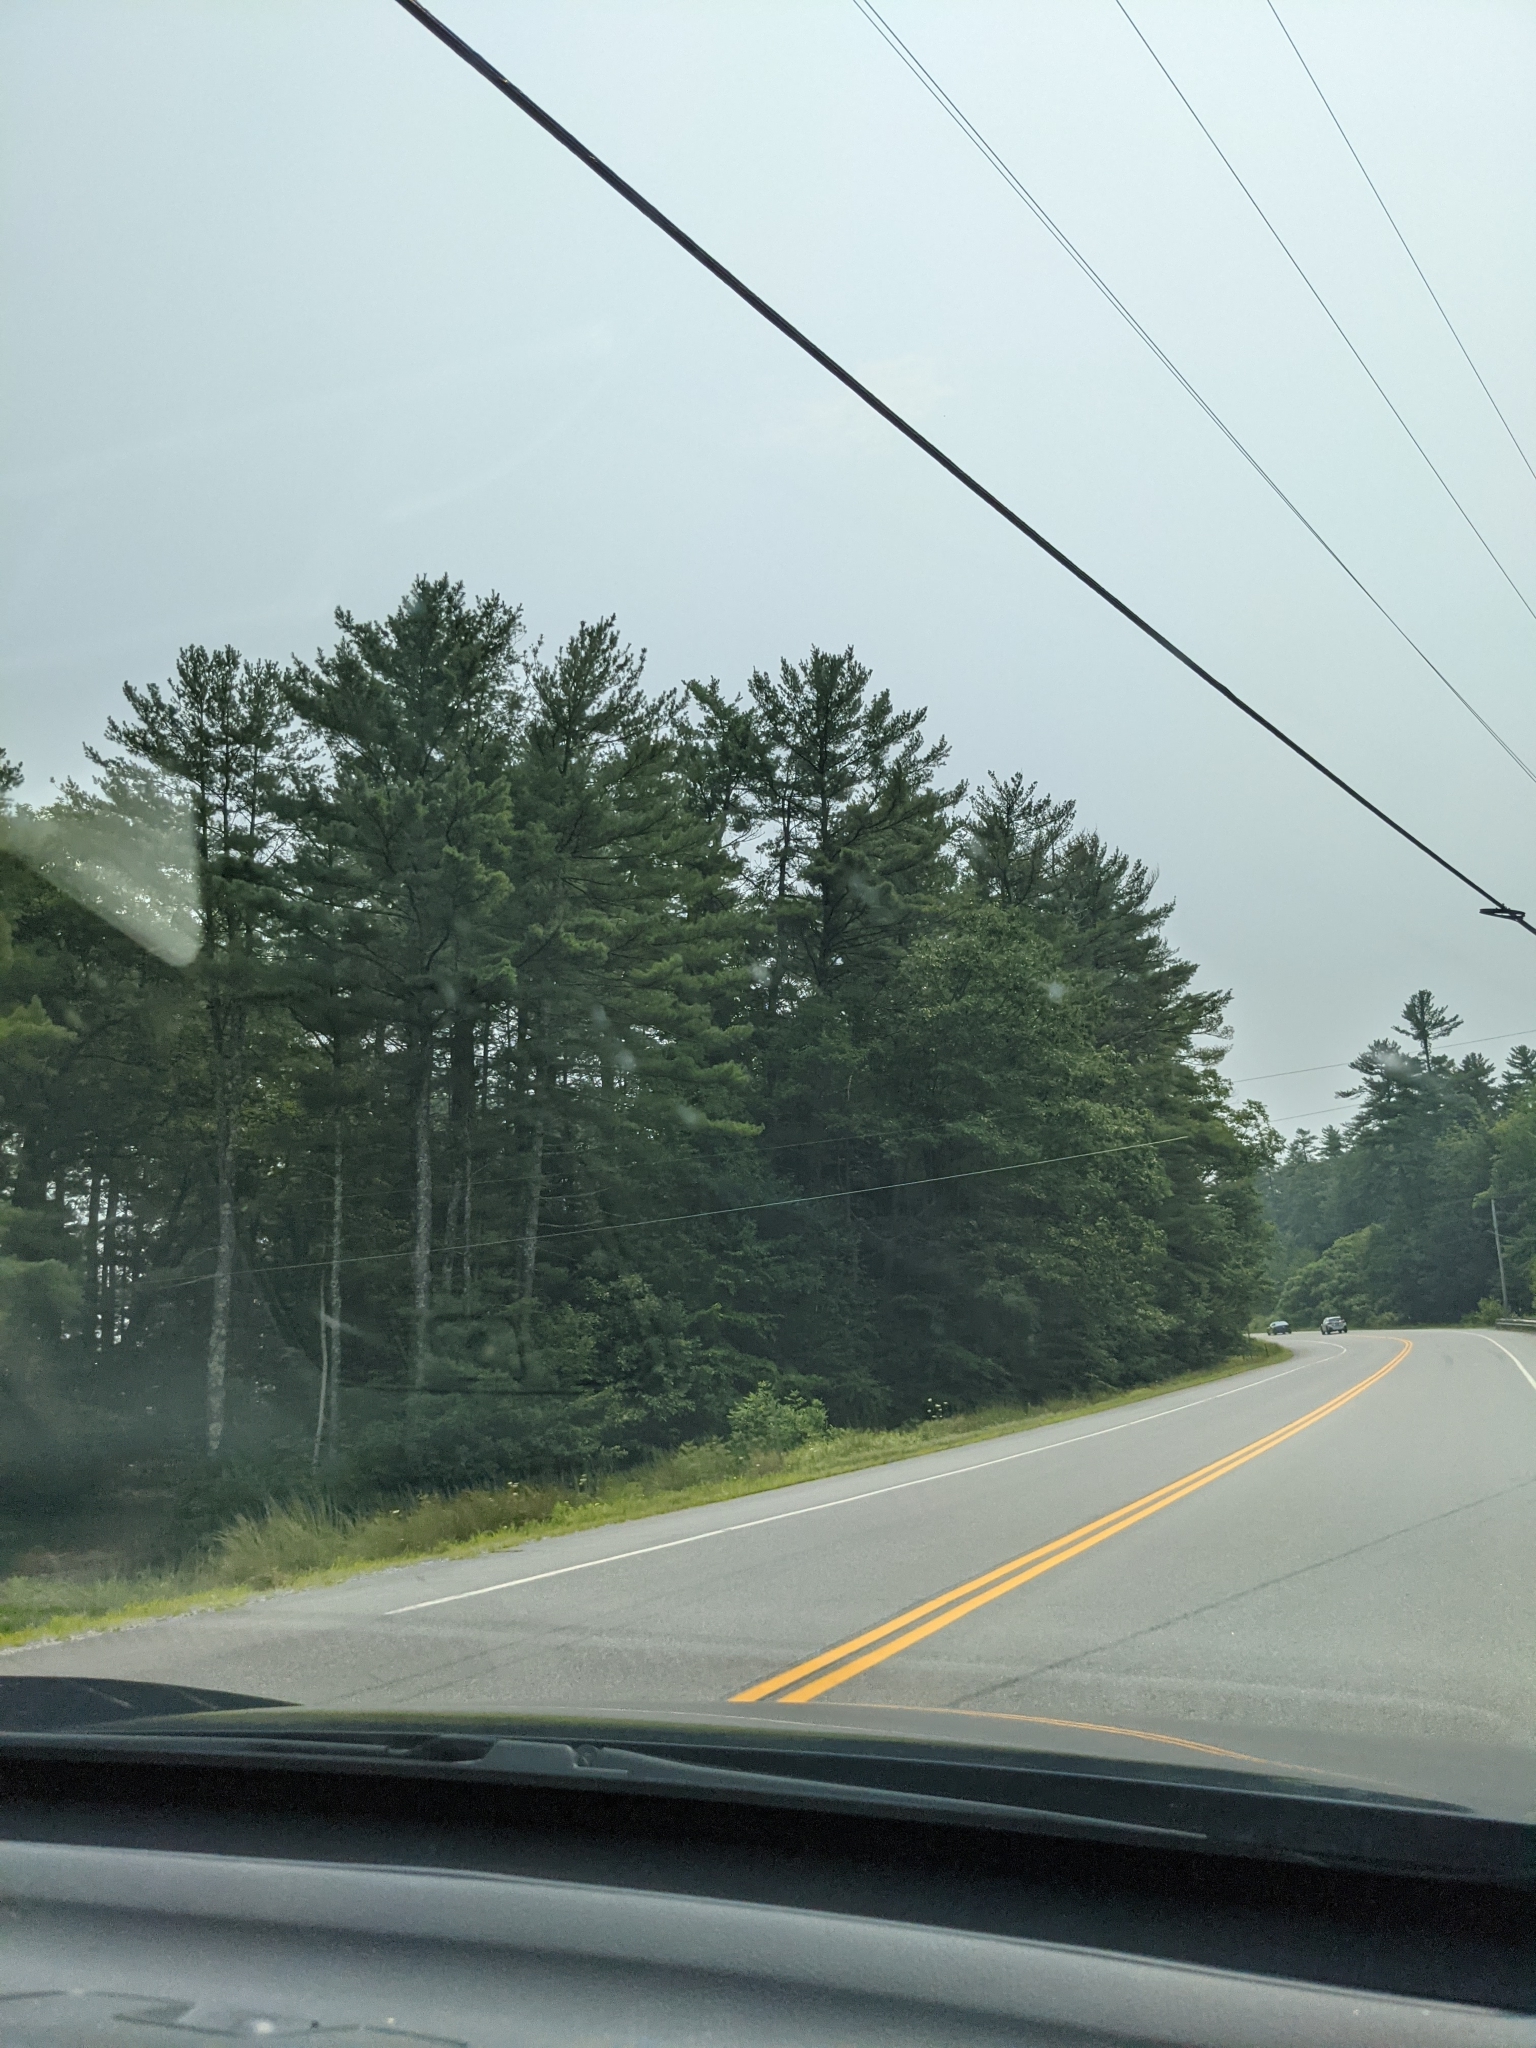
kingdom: Plantae
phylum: Tracheophyta
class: Pinopsida
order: Pinales
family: Pinaceae
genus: Pinus
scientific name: Pinus strobus
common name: Weymouth pine
